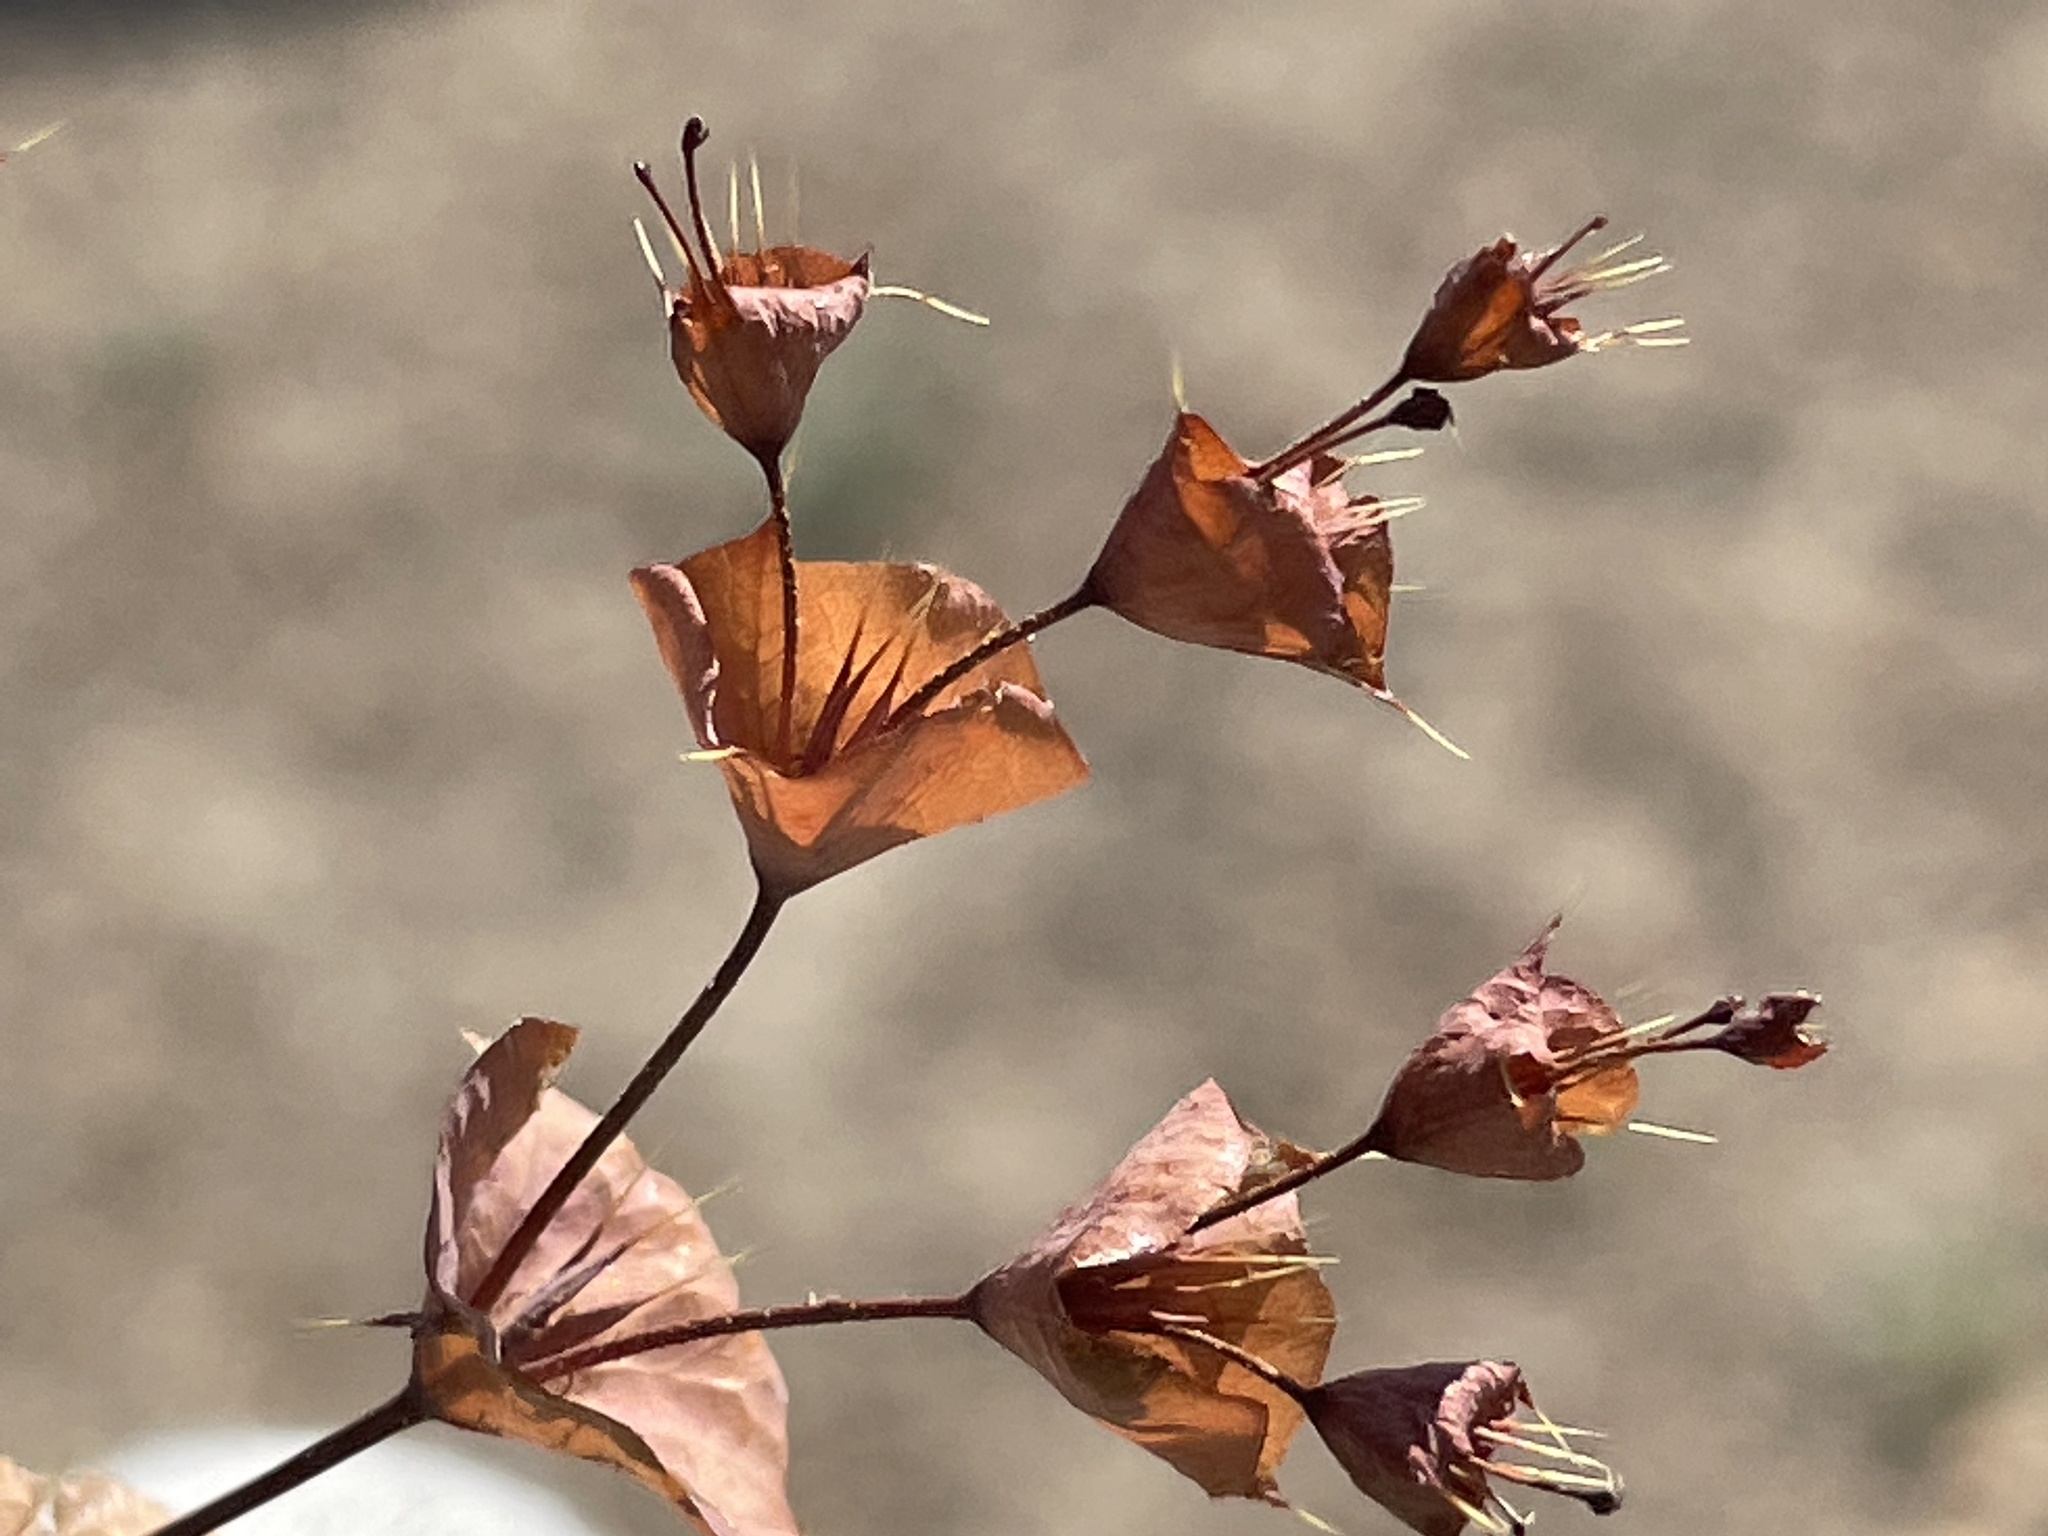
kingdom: Plantae
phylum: Tracheophyta
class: Magnoliopsida
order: Caryophyllales
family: Polygonaceae
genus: Oxytheca
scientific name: Oxytheca perfoliata
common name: Round-leaf puncturebract
